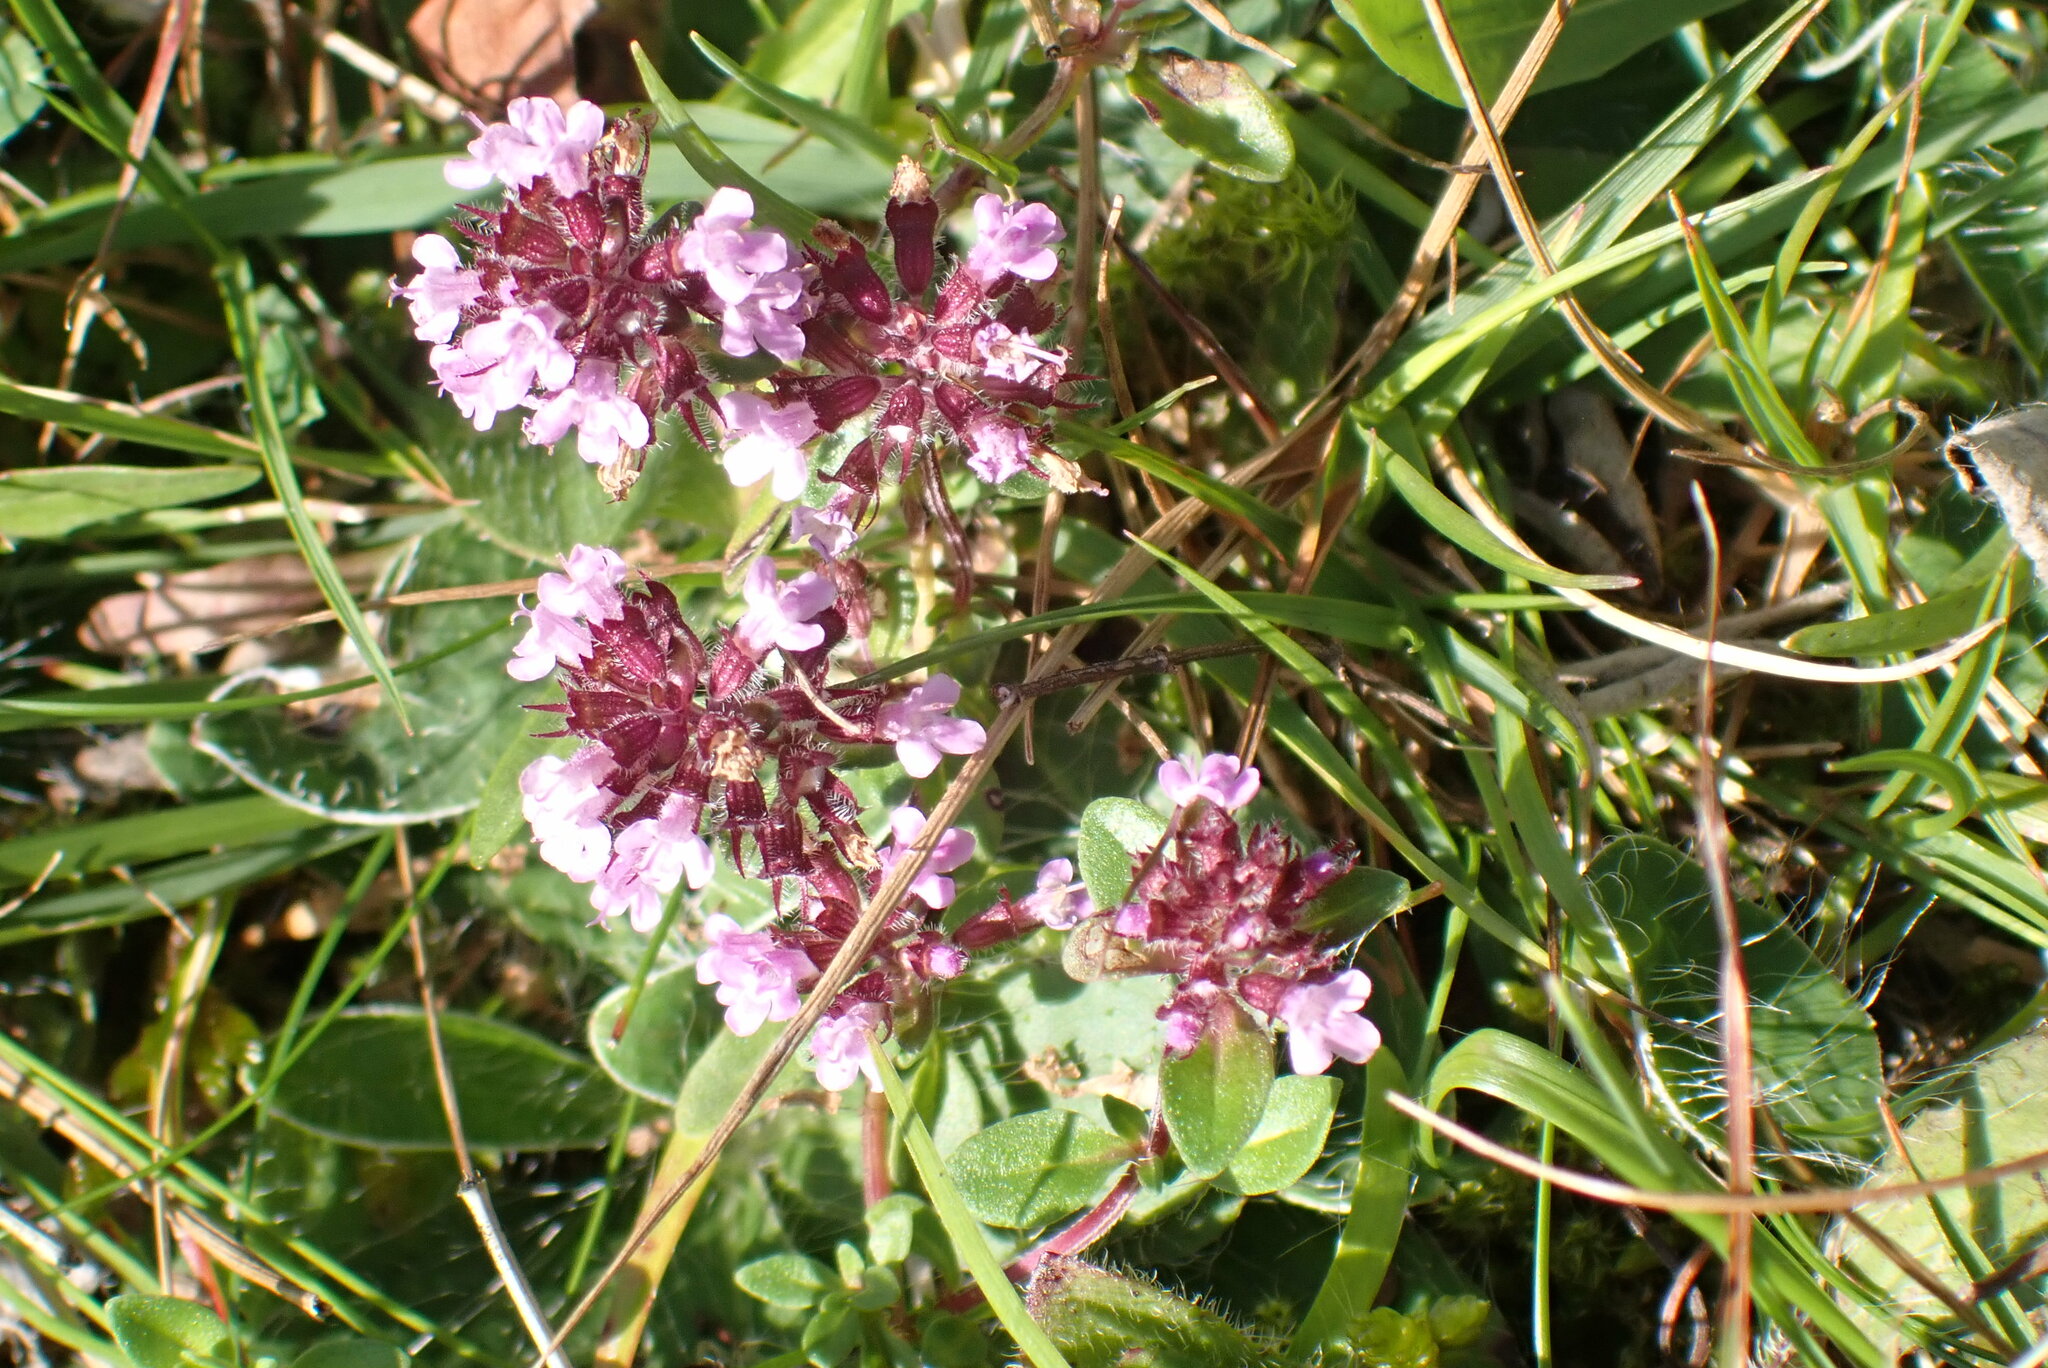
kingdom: Plantae
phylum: Tracheophyta
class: Magnoliopsida
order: Lamiales
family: Lamiaceae
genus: Thymus
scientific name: Thymus pulegioides
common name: Large thyme
